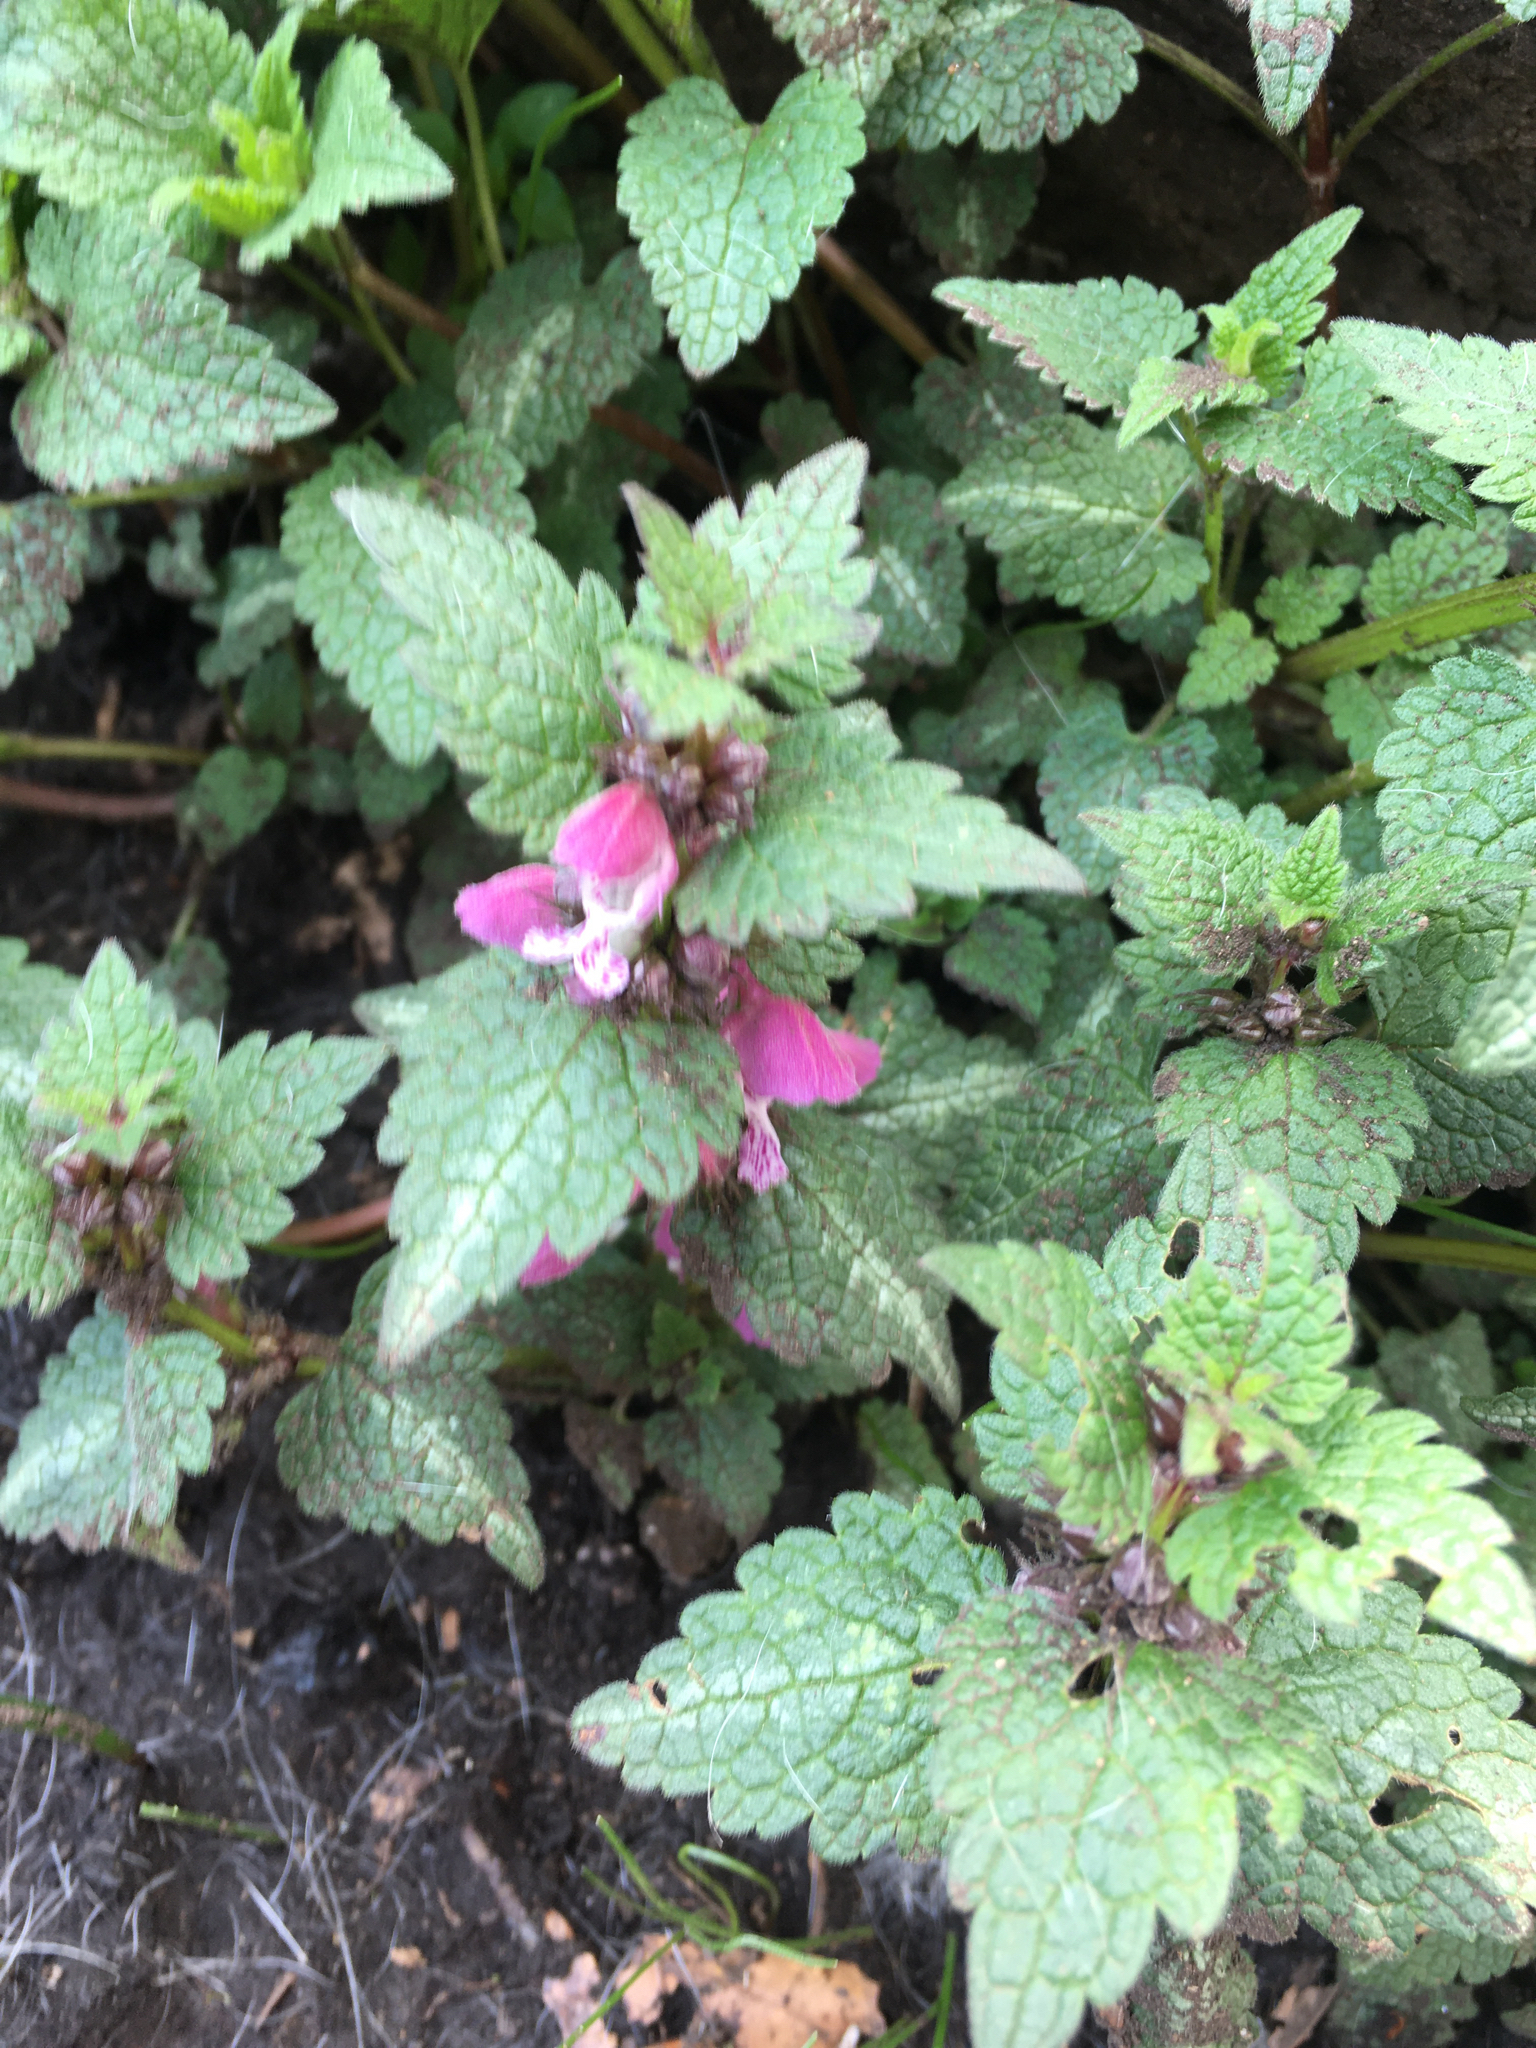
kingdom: Plantae
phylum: Tracheophyta
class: Magnoliopsida
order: Lamiales
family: Lamiaceae
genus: Lamium
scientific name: Lamium maculatum
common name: Spotted dead-nettle
